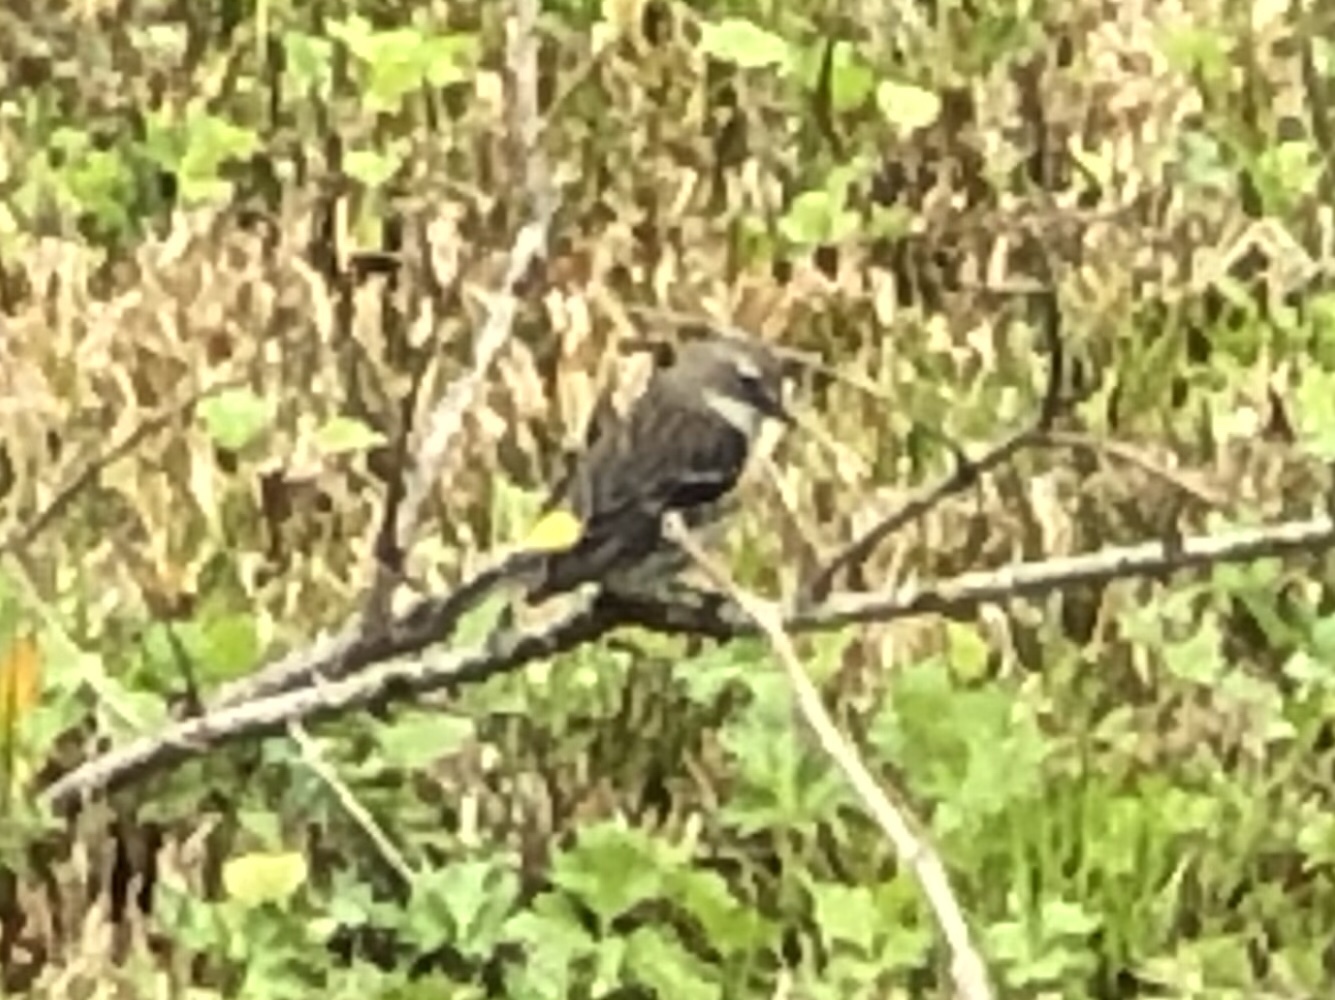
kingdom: Animalia
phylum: Chordata
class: Aves
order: Passeriformes
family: Parulidae
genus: Setophaga
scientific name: Setophaga coronata
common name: Myrtle warbler
